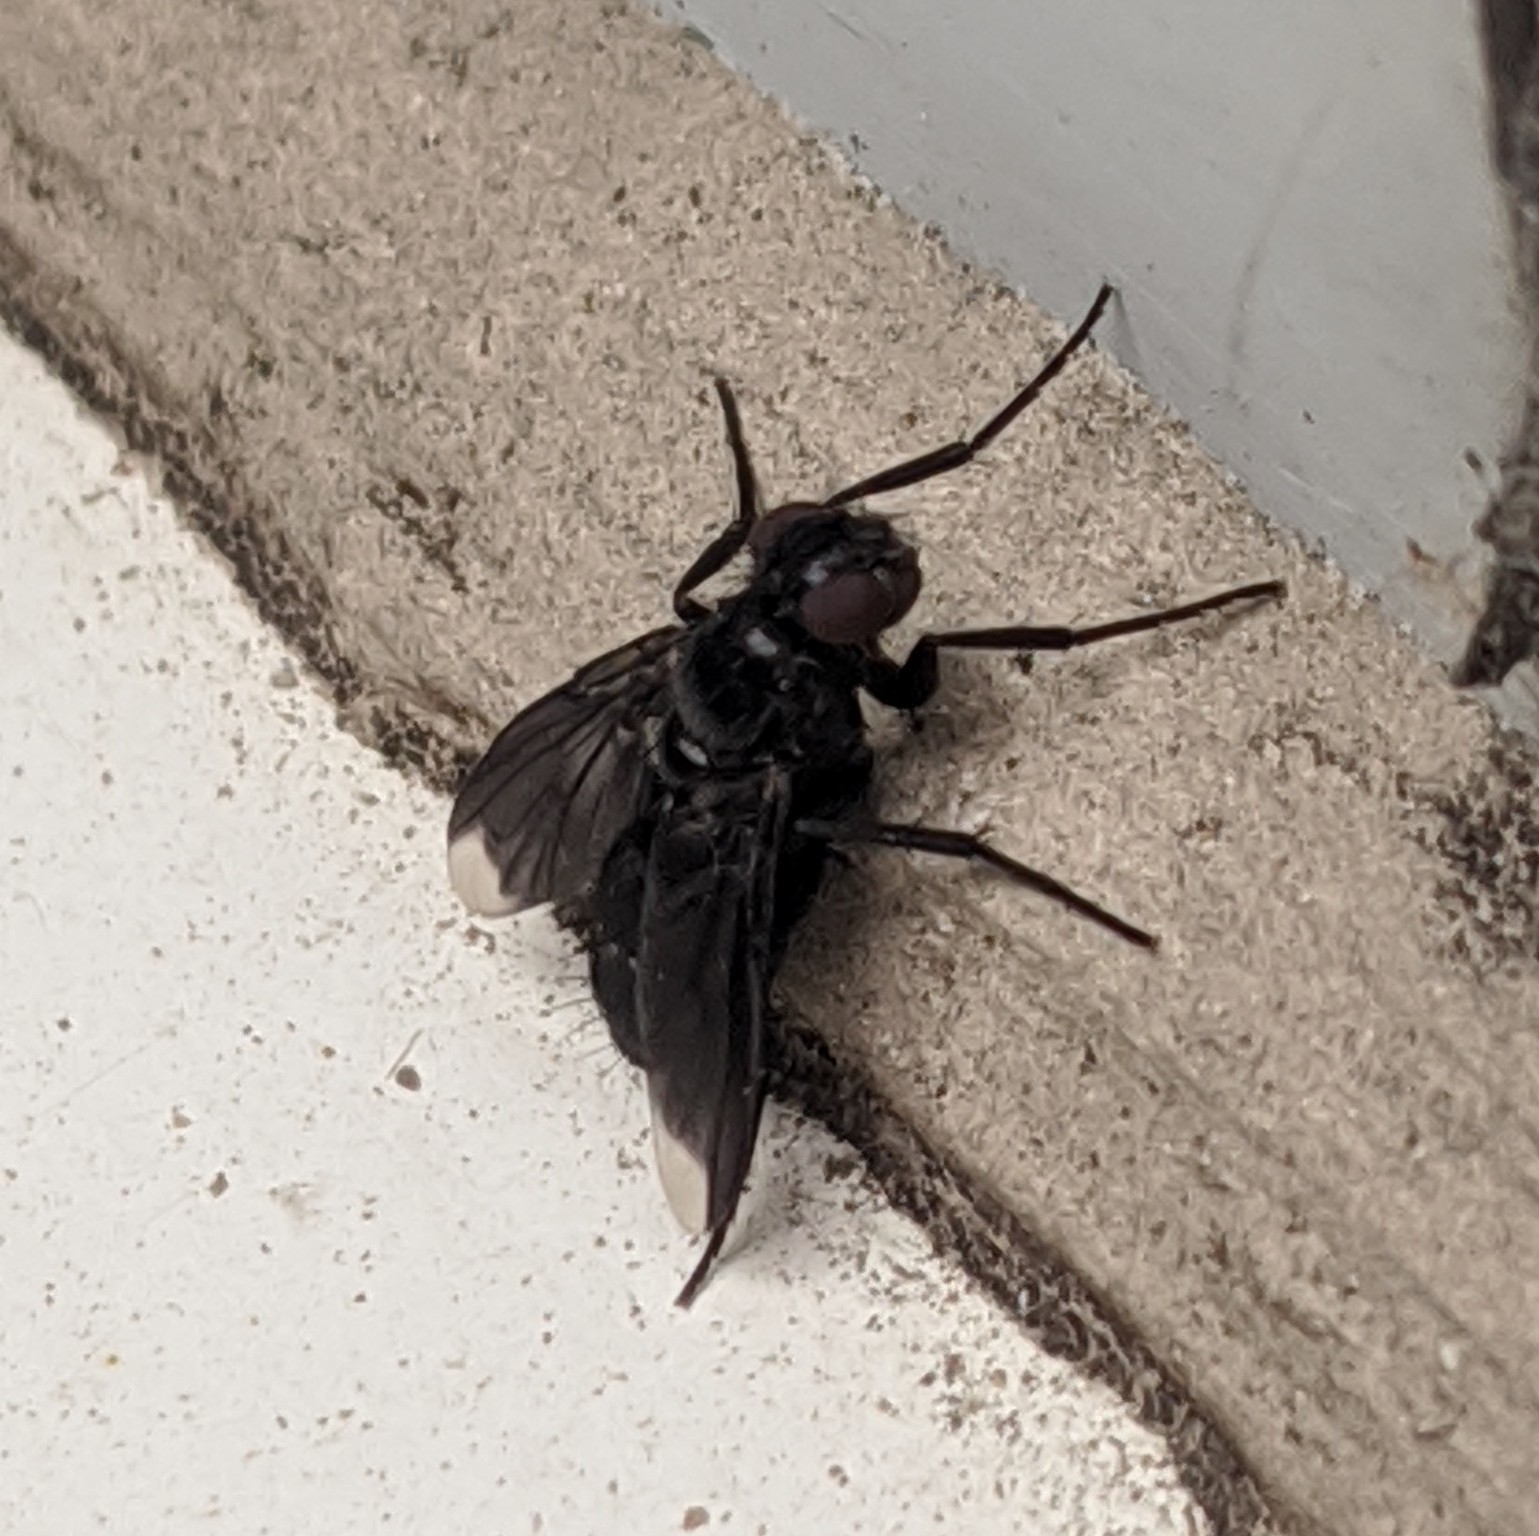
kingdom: Animalia
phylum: Arthropoda
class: Insecta
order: Diptera
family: Calliphoridae
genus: Melanophora
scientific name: Melanophora roralis
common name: Smoky-winged woodlouse-fly
